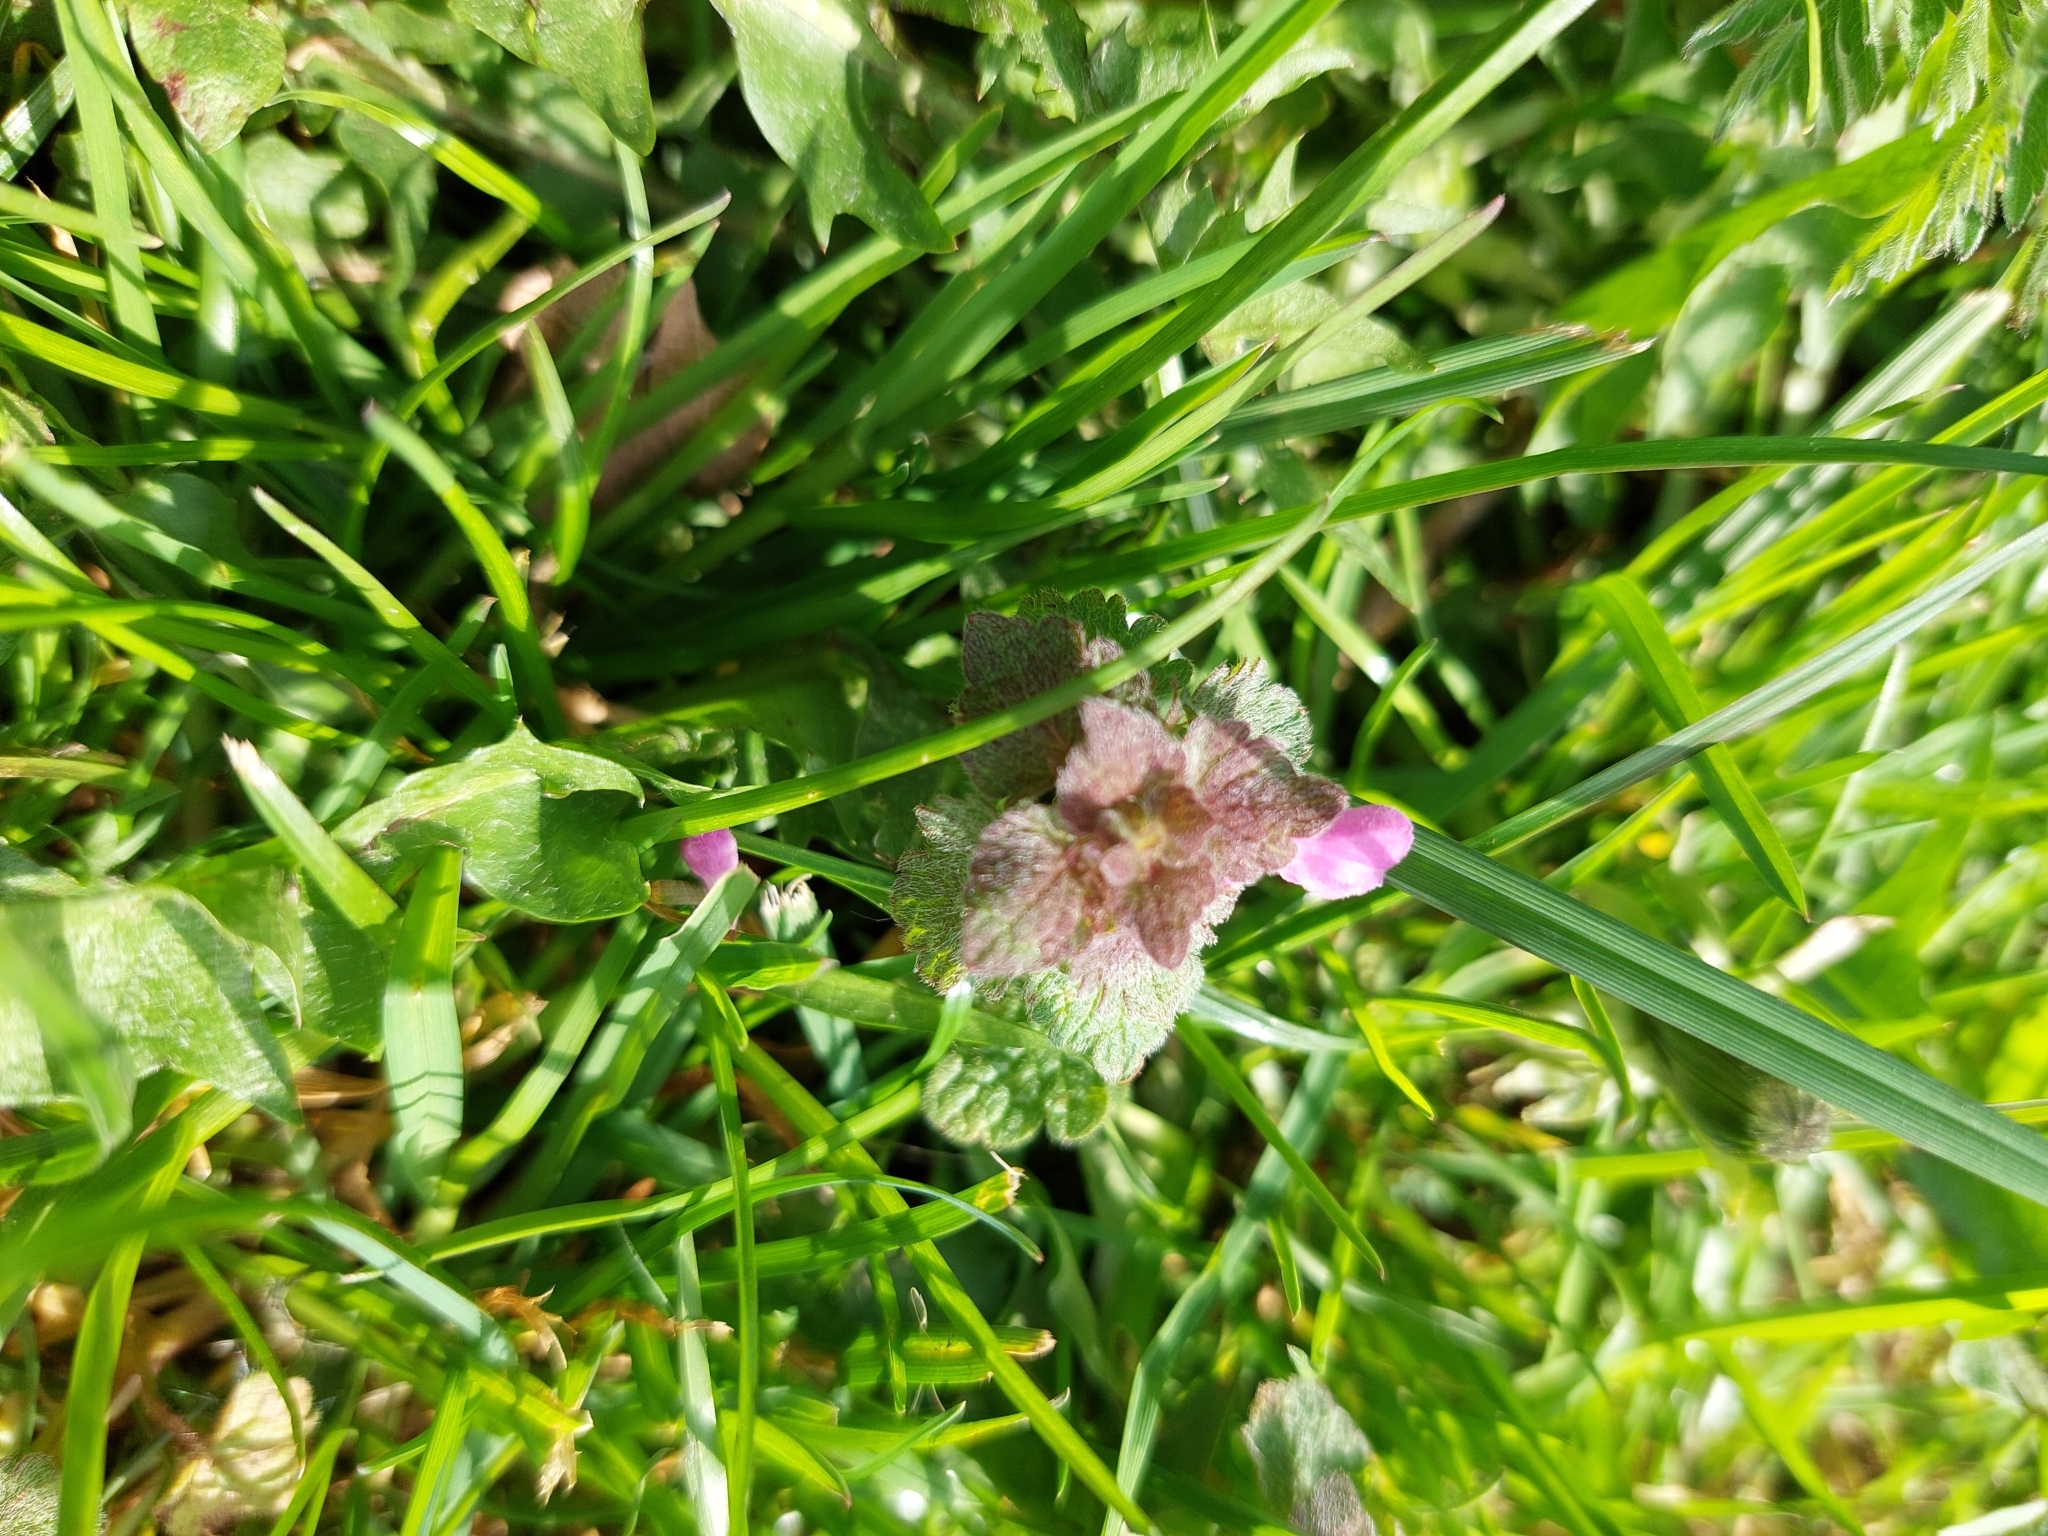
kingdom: Plantae
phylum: Tracheophyta
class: Magnoliopsida
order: Lamiales
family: Lamiaceae
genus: Lamium
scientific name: Lamium purpureum
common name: Red dead-nettle
